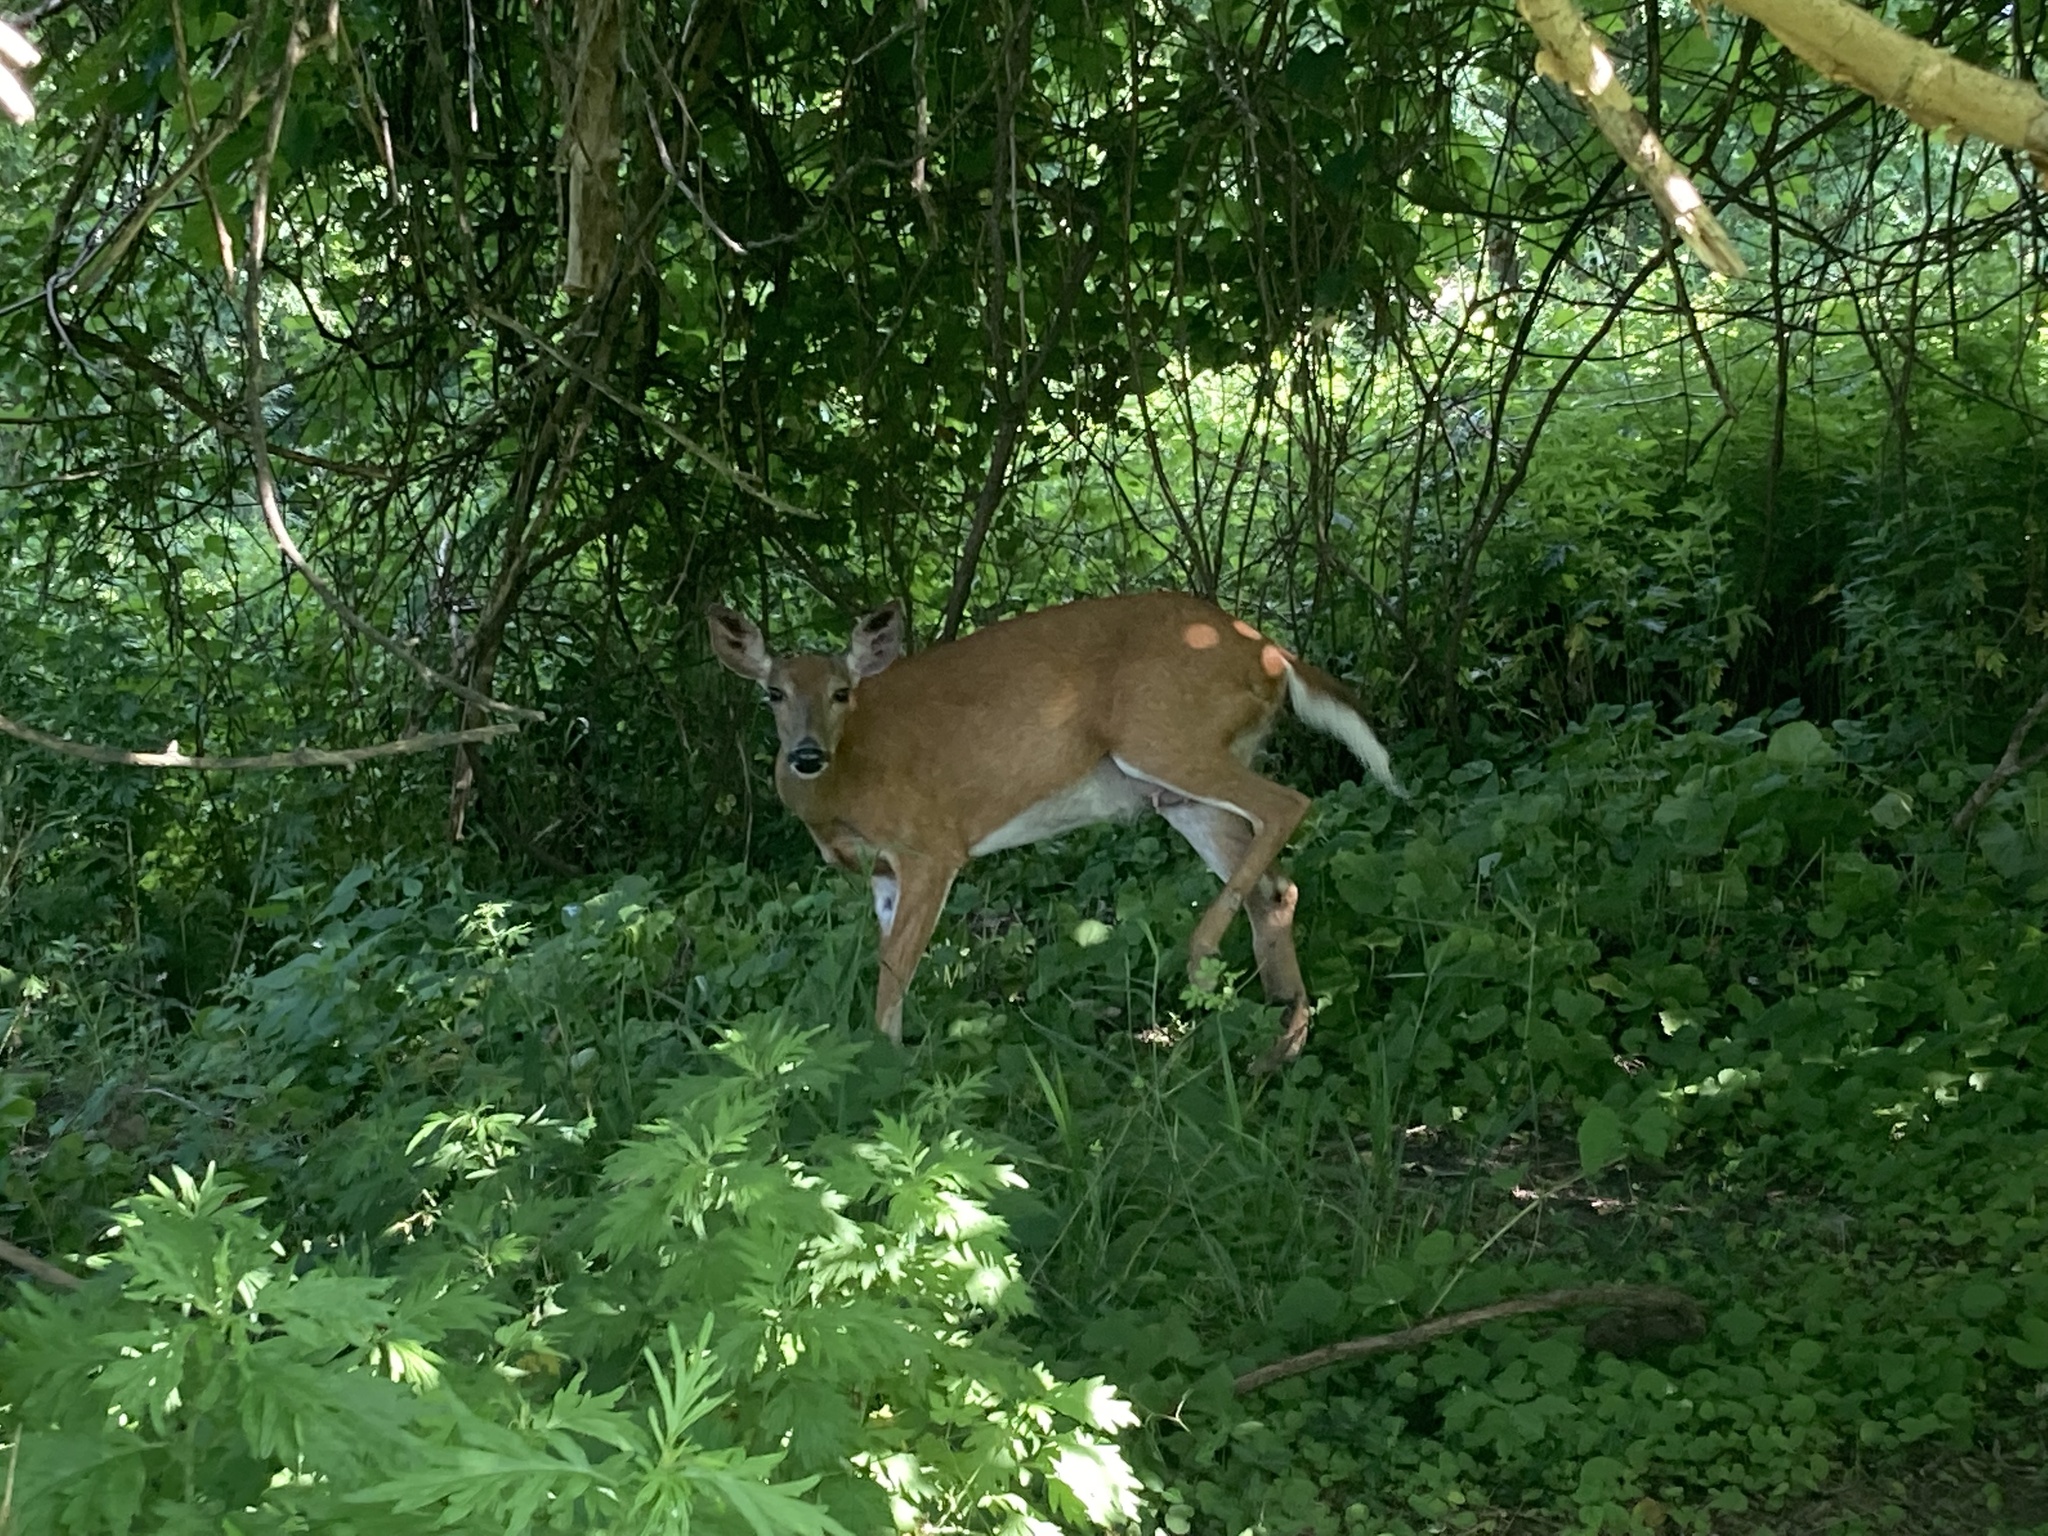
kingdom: Animalia
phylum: Chordata
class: Mammalia
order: Artiodactyla
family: Cervidae
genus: Odocoileus
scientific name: Odocoileus virginianus
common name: White-tailed deer
